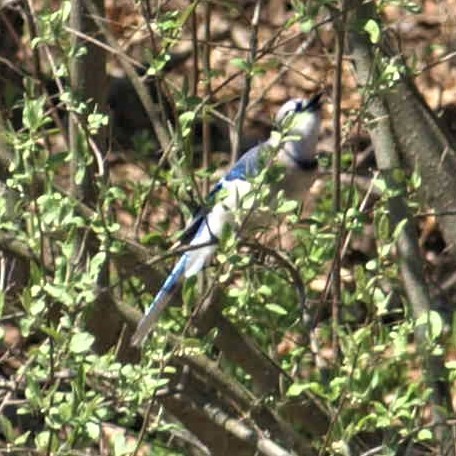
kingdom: Animalia
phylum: Chordata
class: Aves
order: Passeriformes
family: Corvidae
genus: Cyanocitta
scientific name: Cyanocitta cristata
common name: Blue jay
